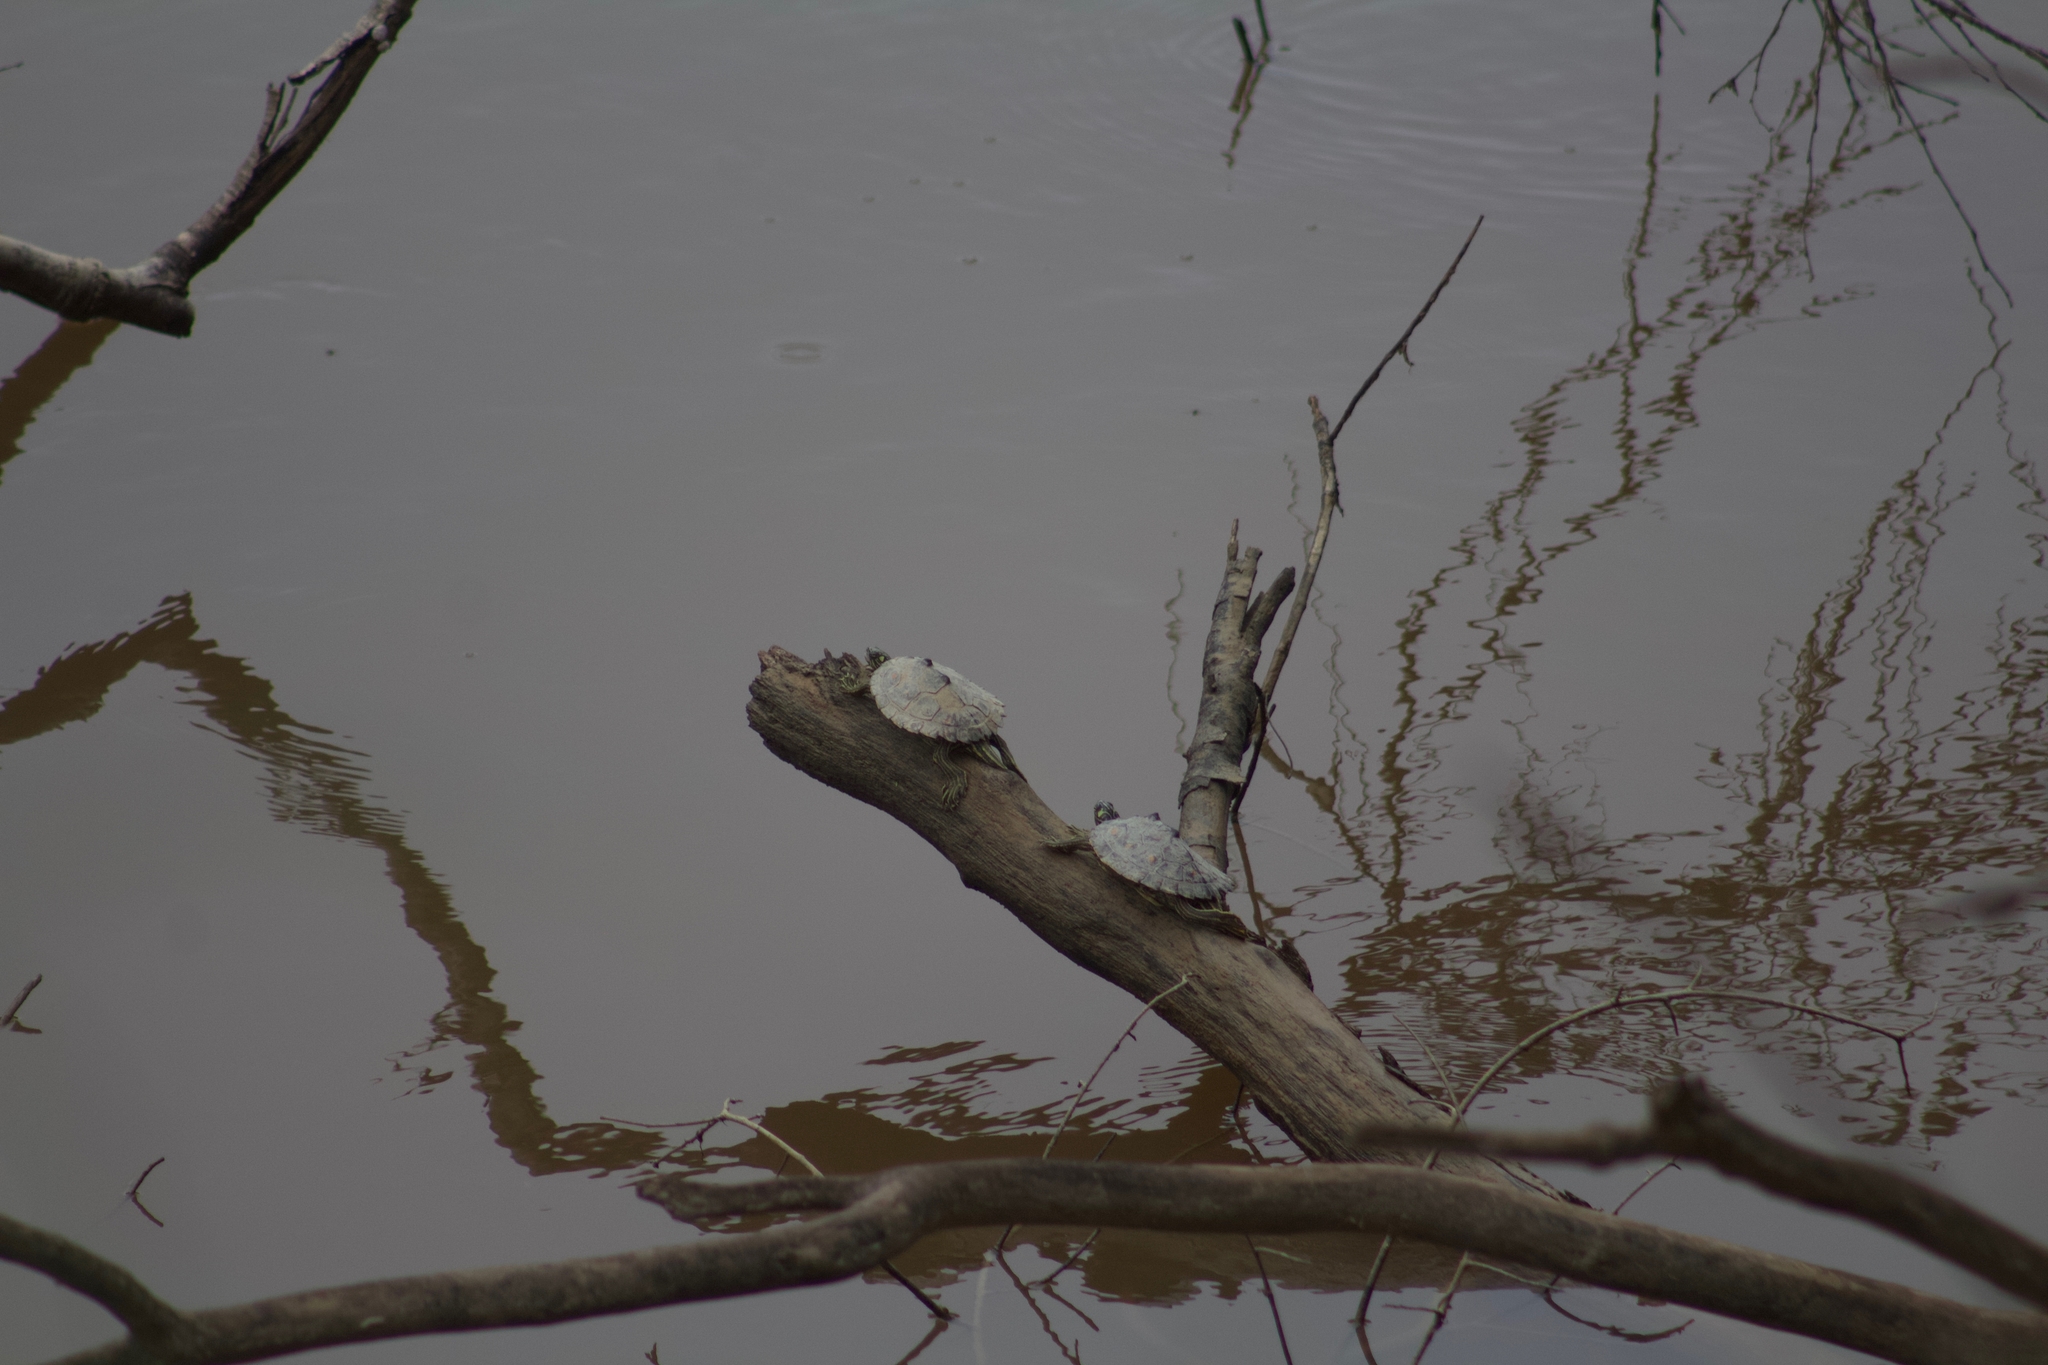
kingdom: Animalia
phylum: Chordata
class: Testudines
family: Emydidae
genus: Graptemys
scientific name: Graptemys flavimaculata
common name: Yellow-blotched map turtle
